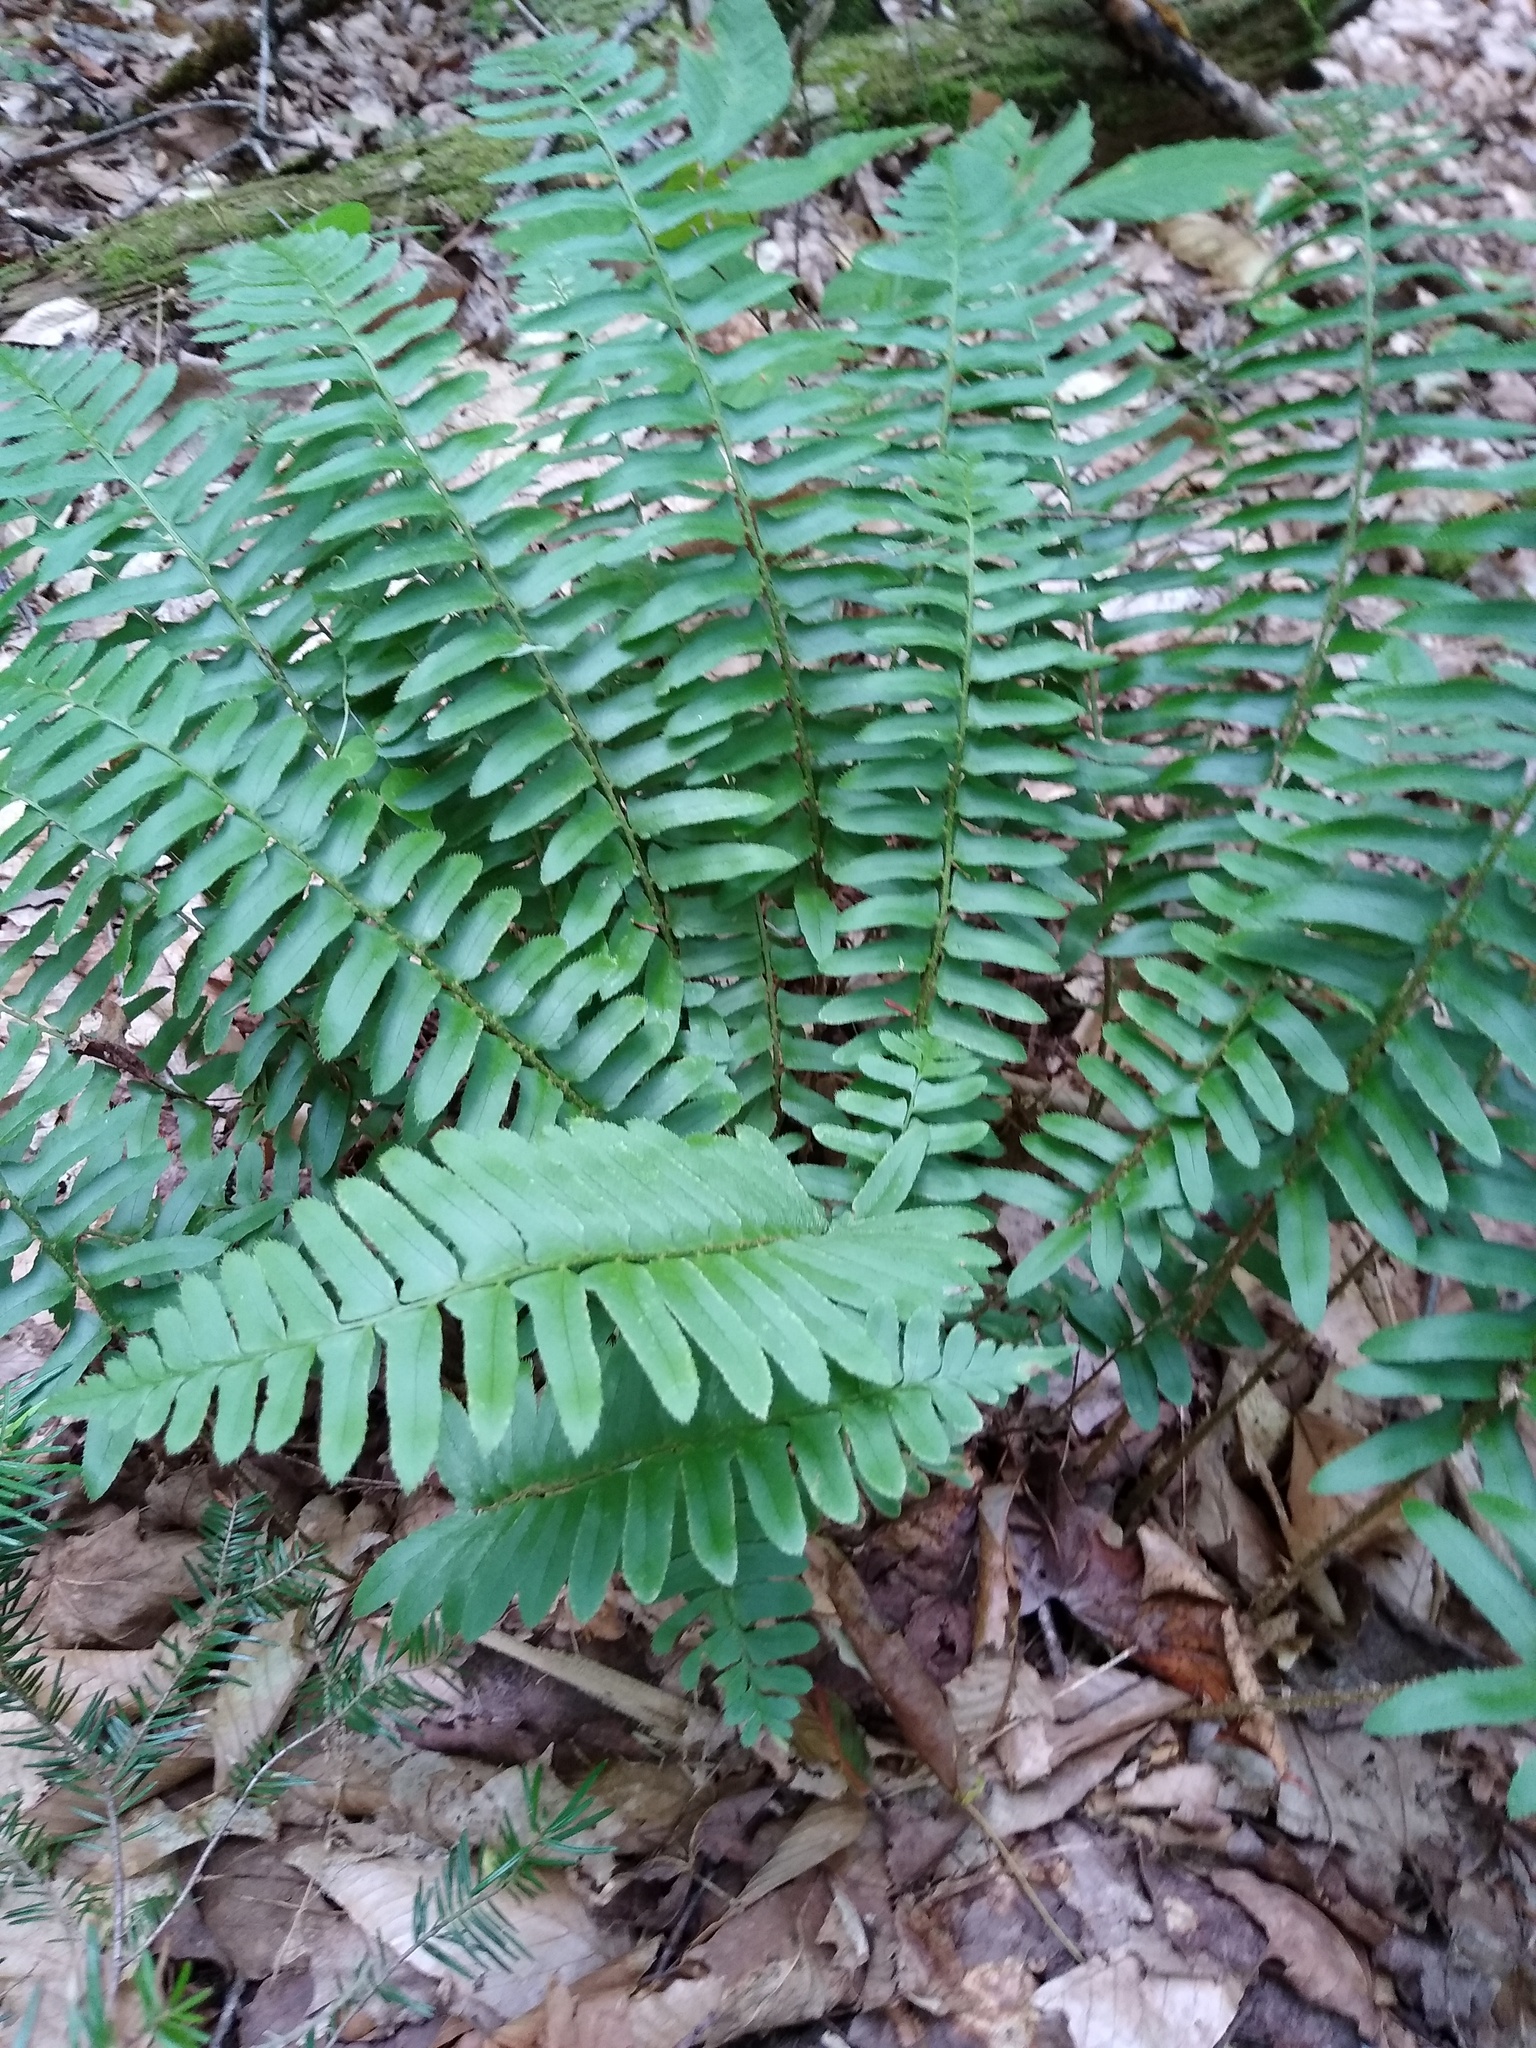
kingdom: Plantae
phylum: Tracheophyta
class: Polypodiopsida
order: Polypodiales
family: Dryopteridaceae
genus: Polystichum
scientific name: Polystichum acrostichoides
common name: Christmas fern
